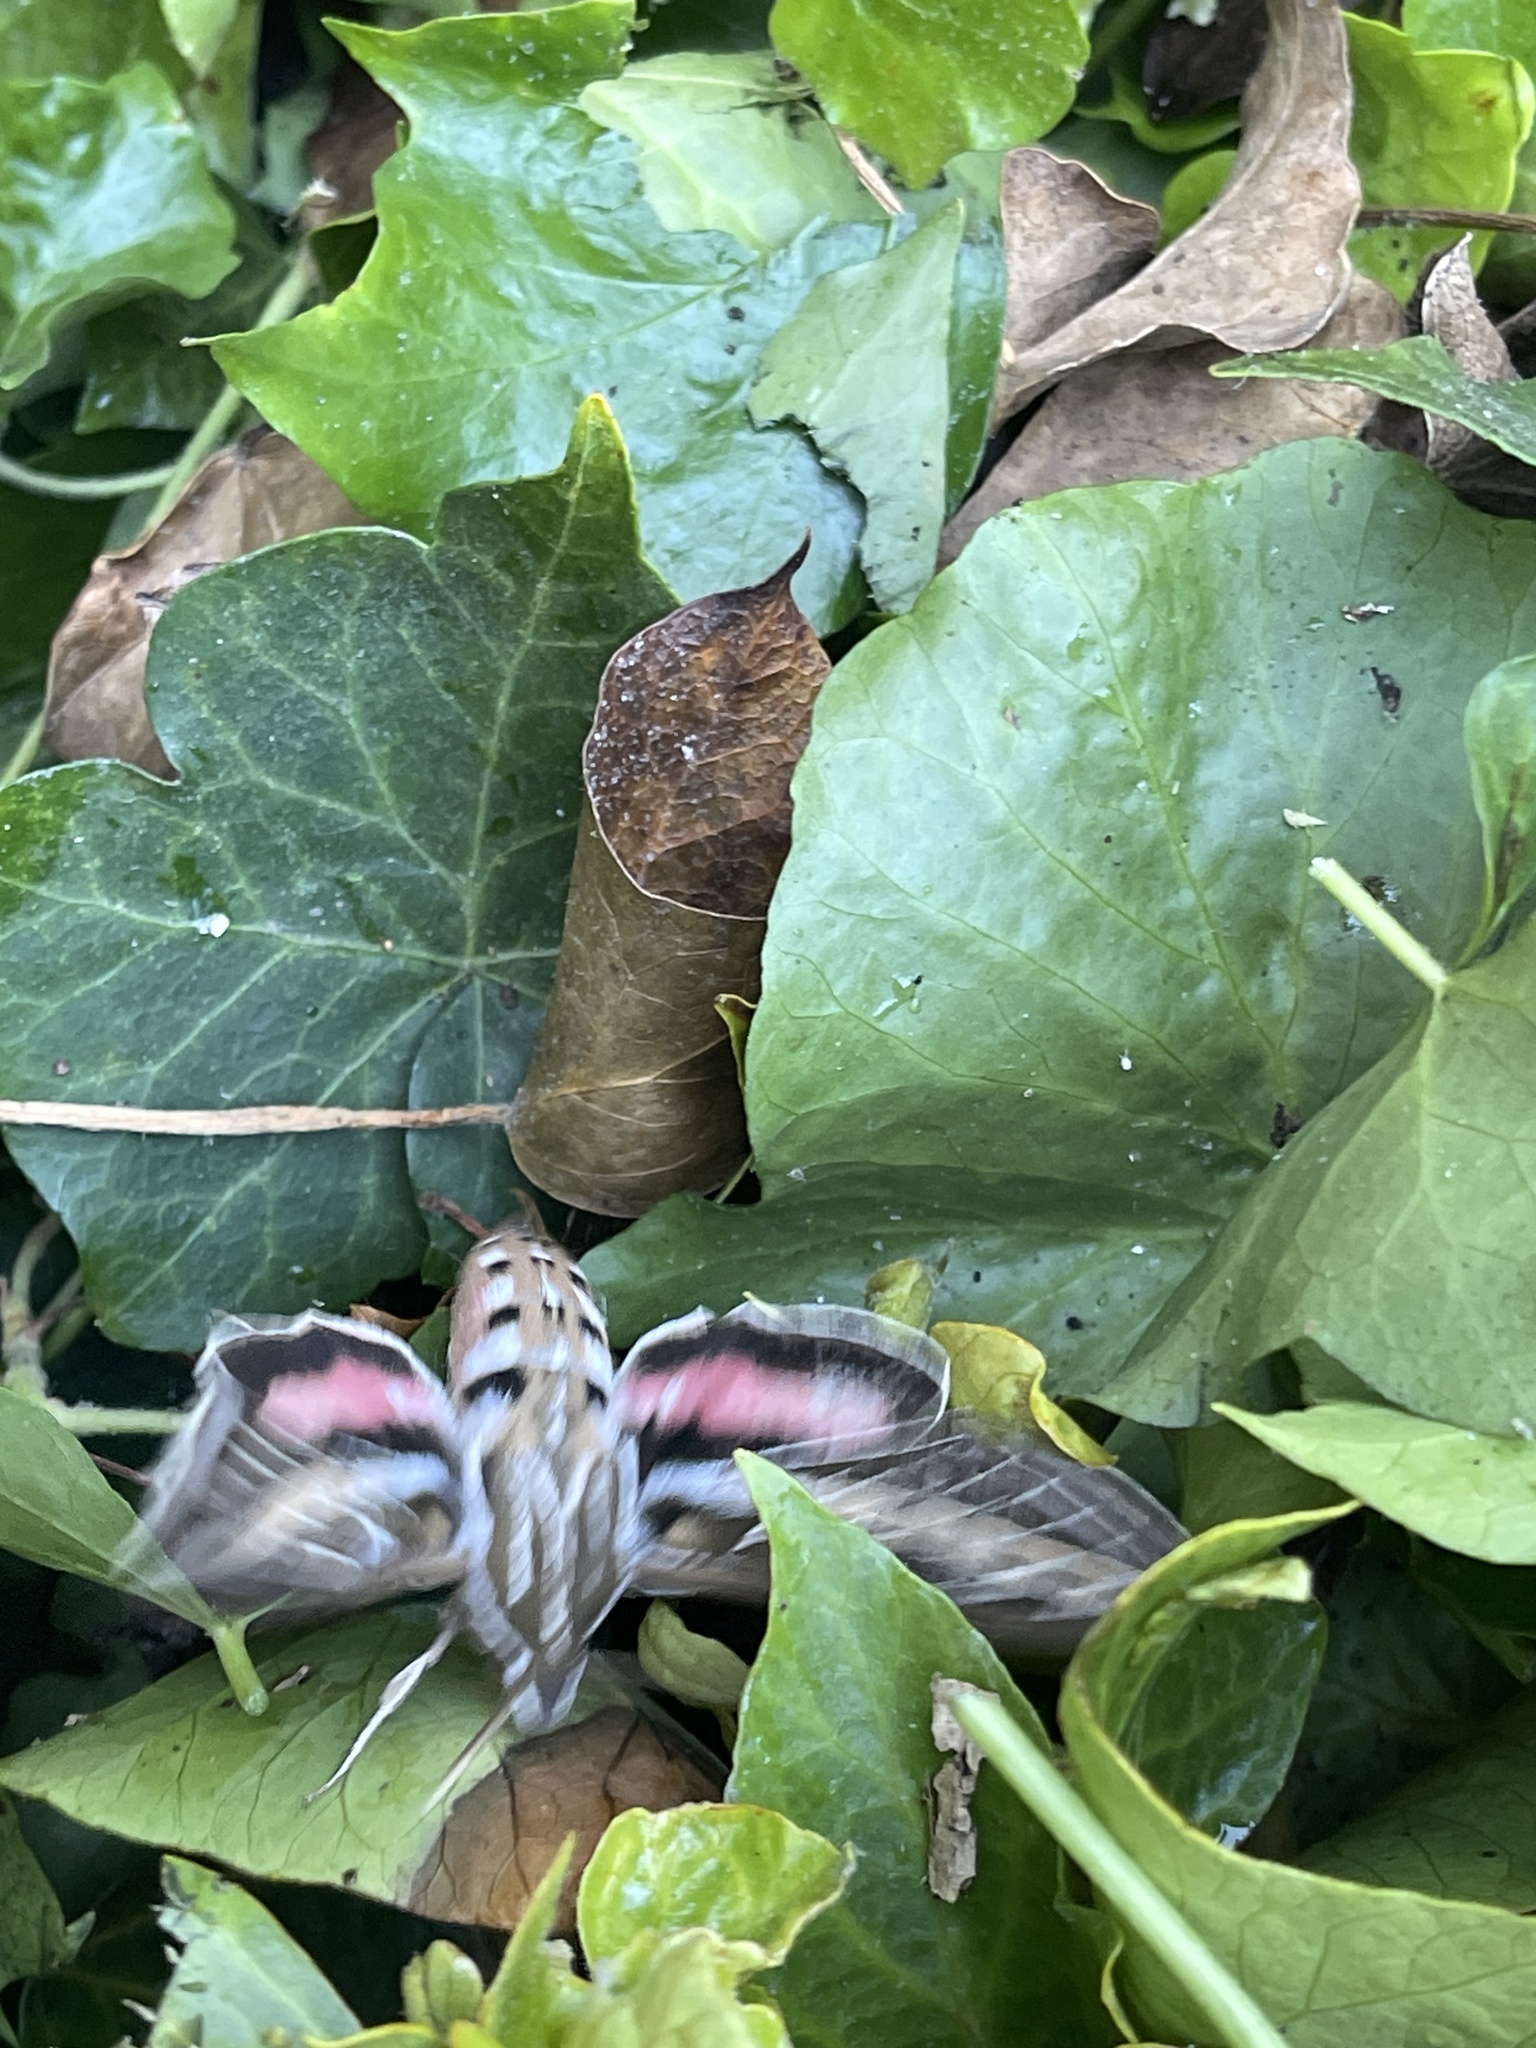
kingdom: Animalia
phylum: Arthropoda
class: Insecta
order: Lepidoptera
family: Sphingidae
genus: Hyles
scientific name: Hyles lineata
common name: White-lined sphinx
